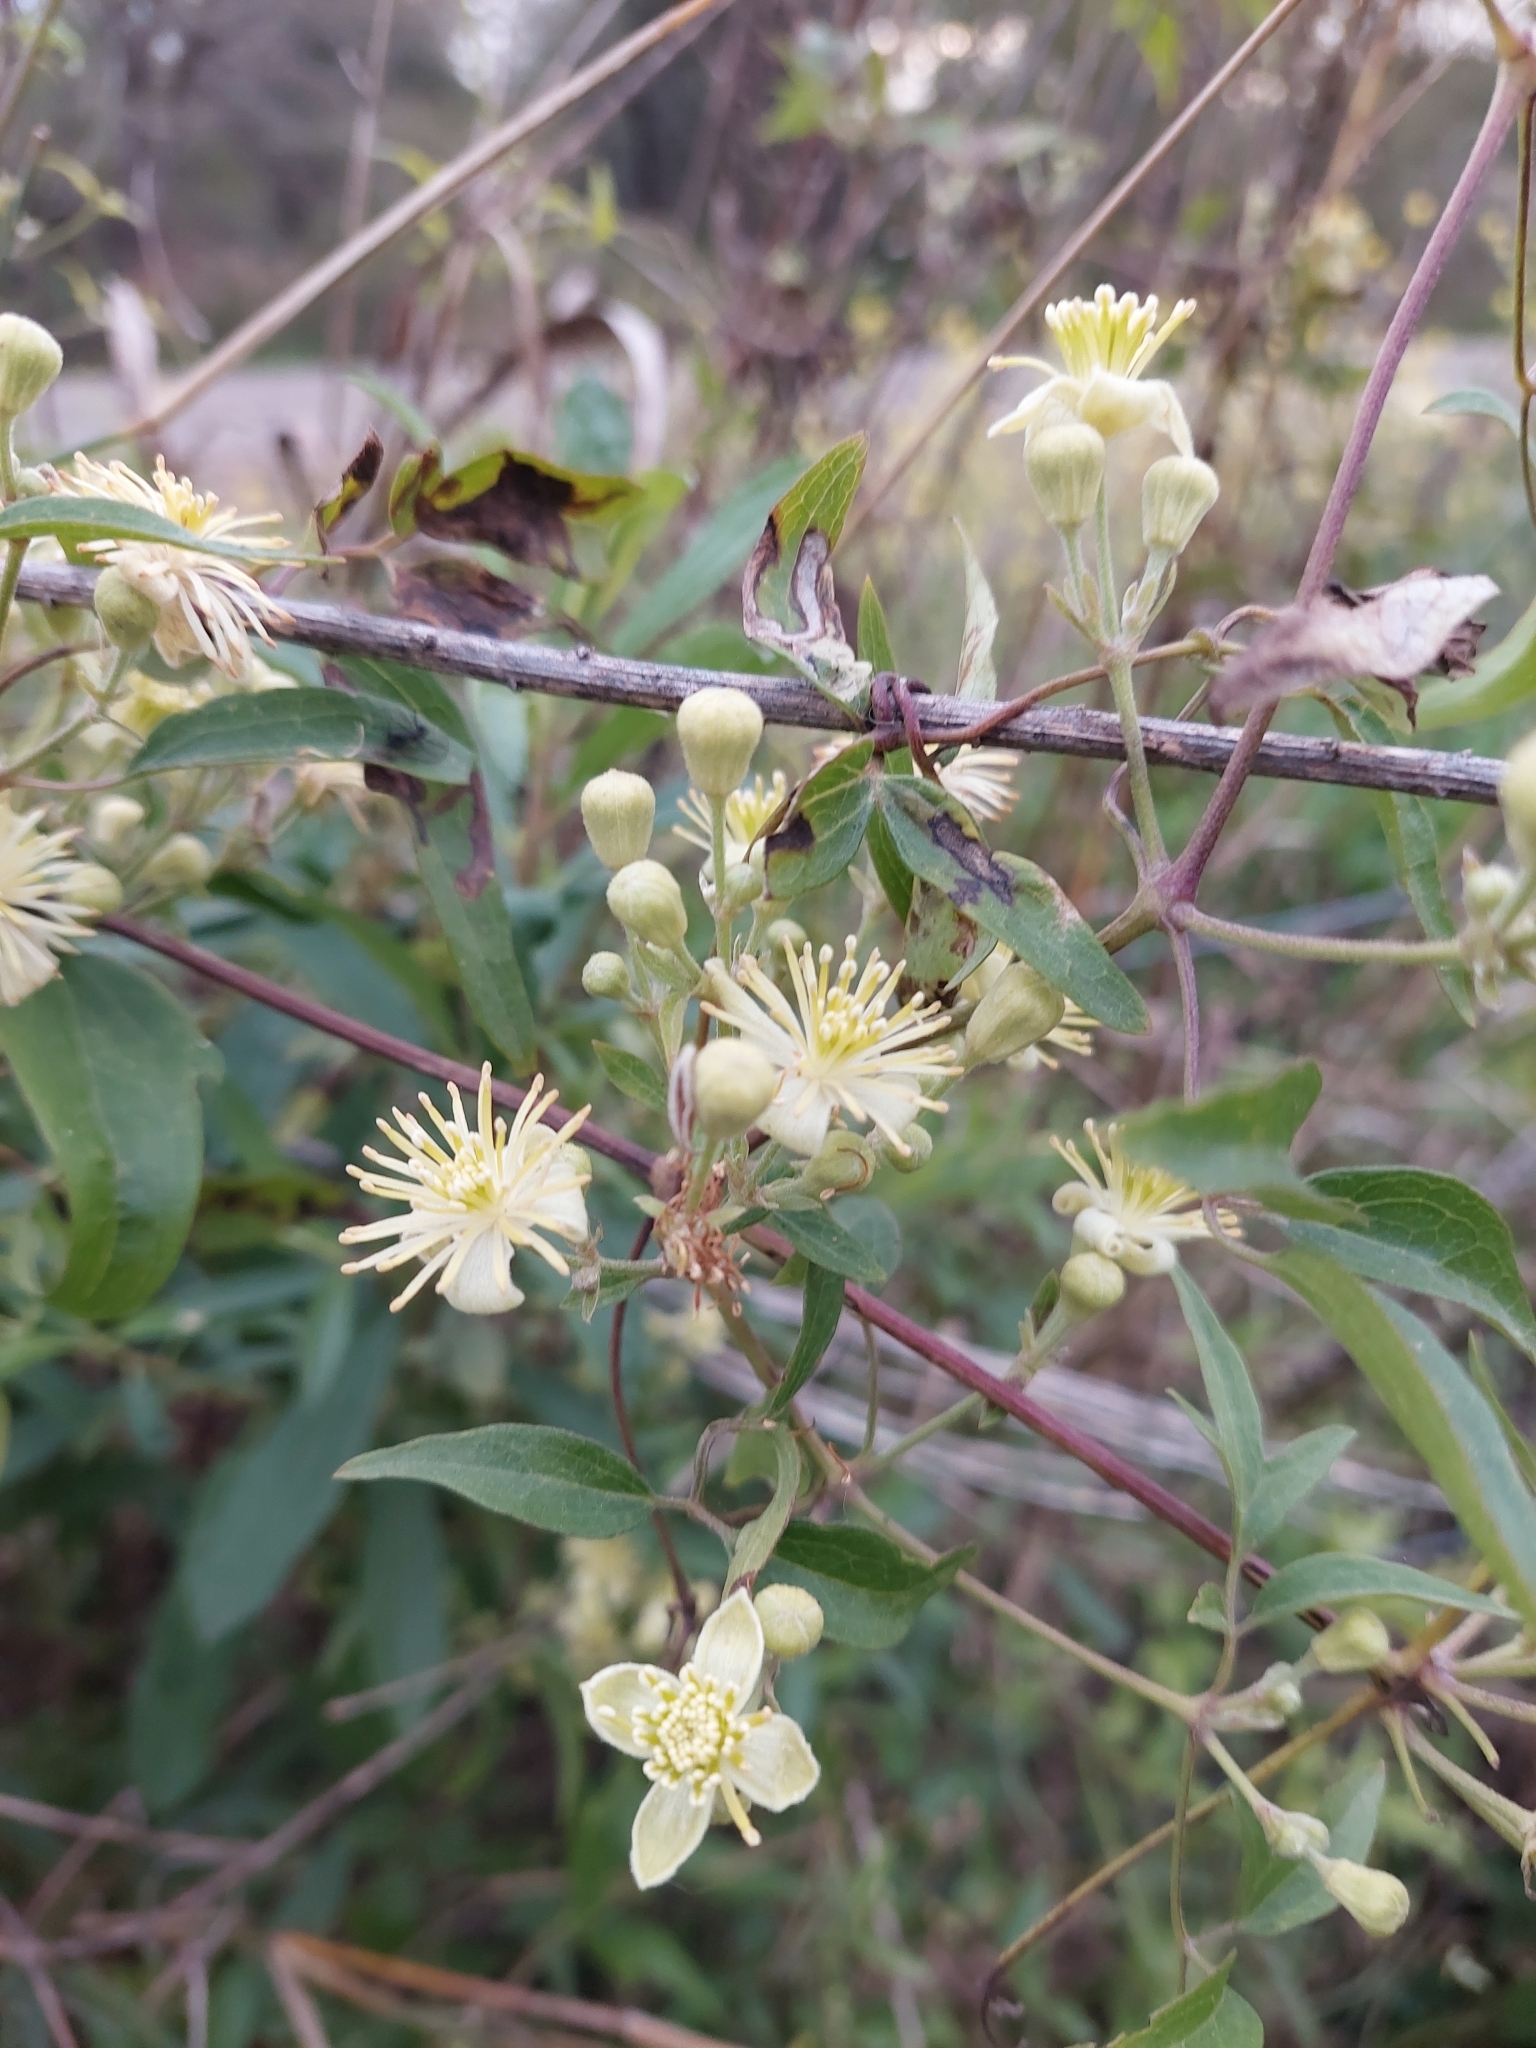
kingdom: Plantae
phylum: Tracheophyta
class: Magnoliopsida
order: Ranunculales
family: Ranunculaceae
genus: Clematis
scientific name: Clematis montevidensis
